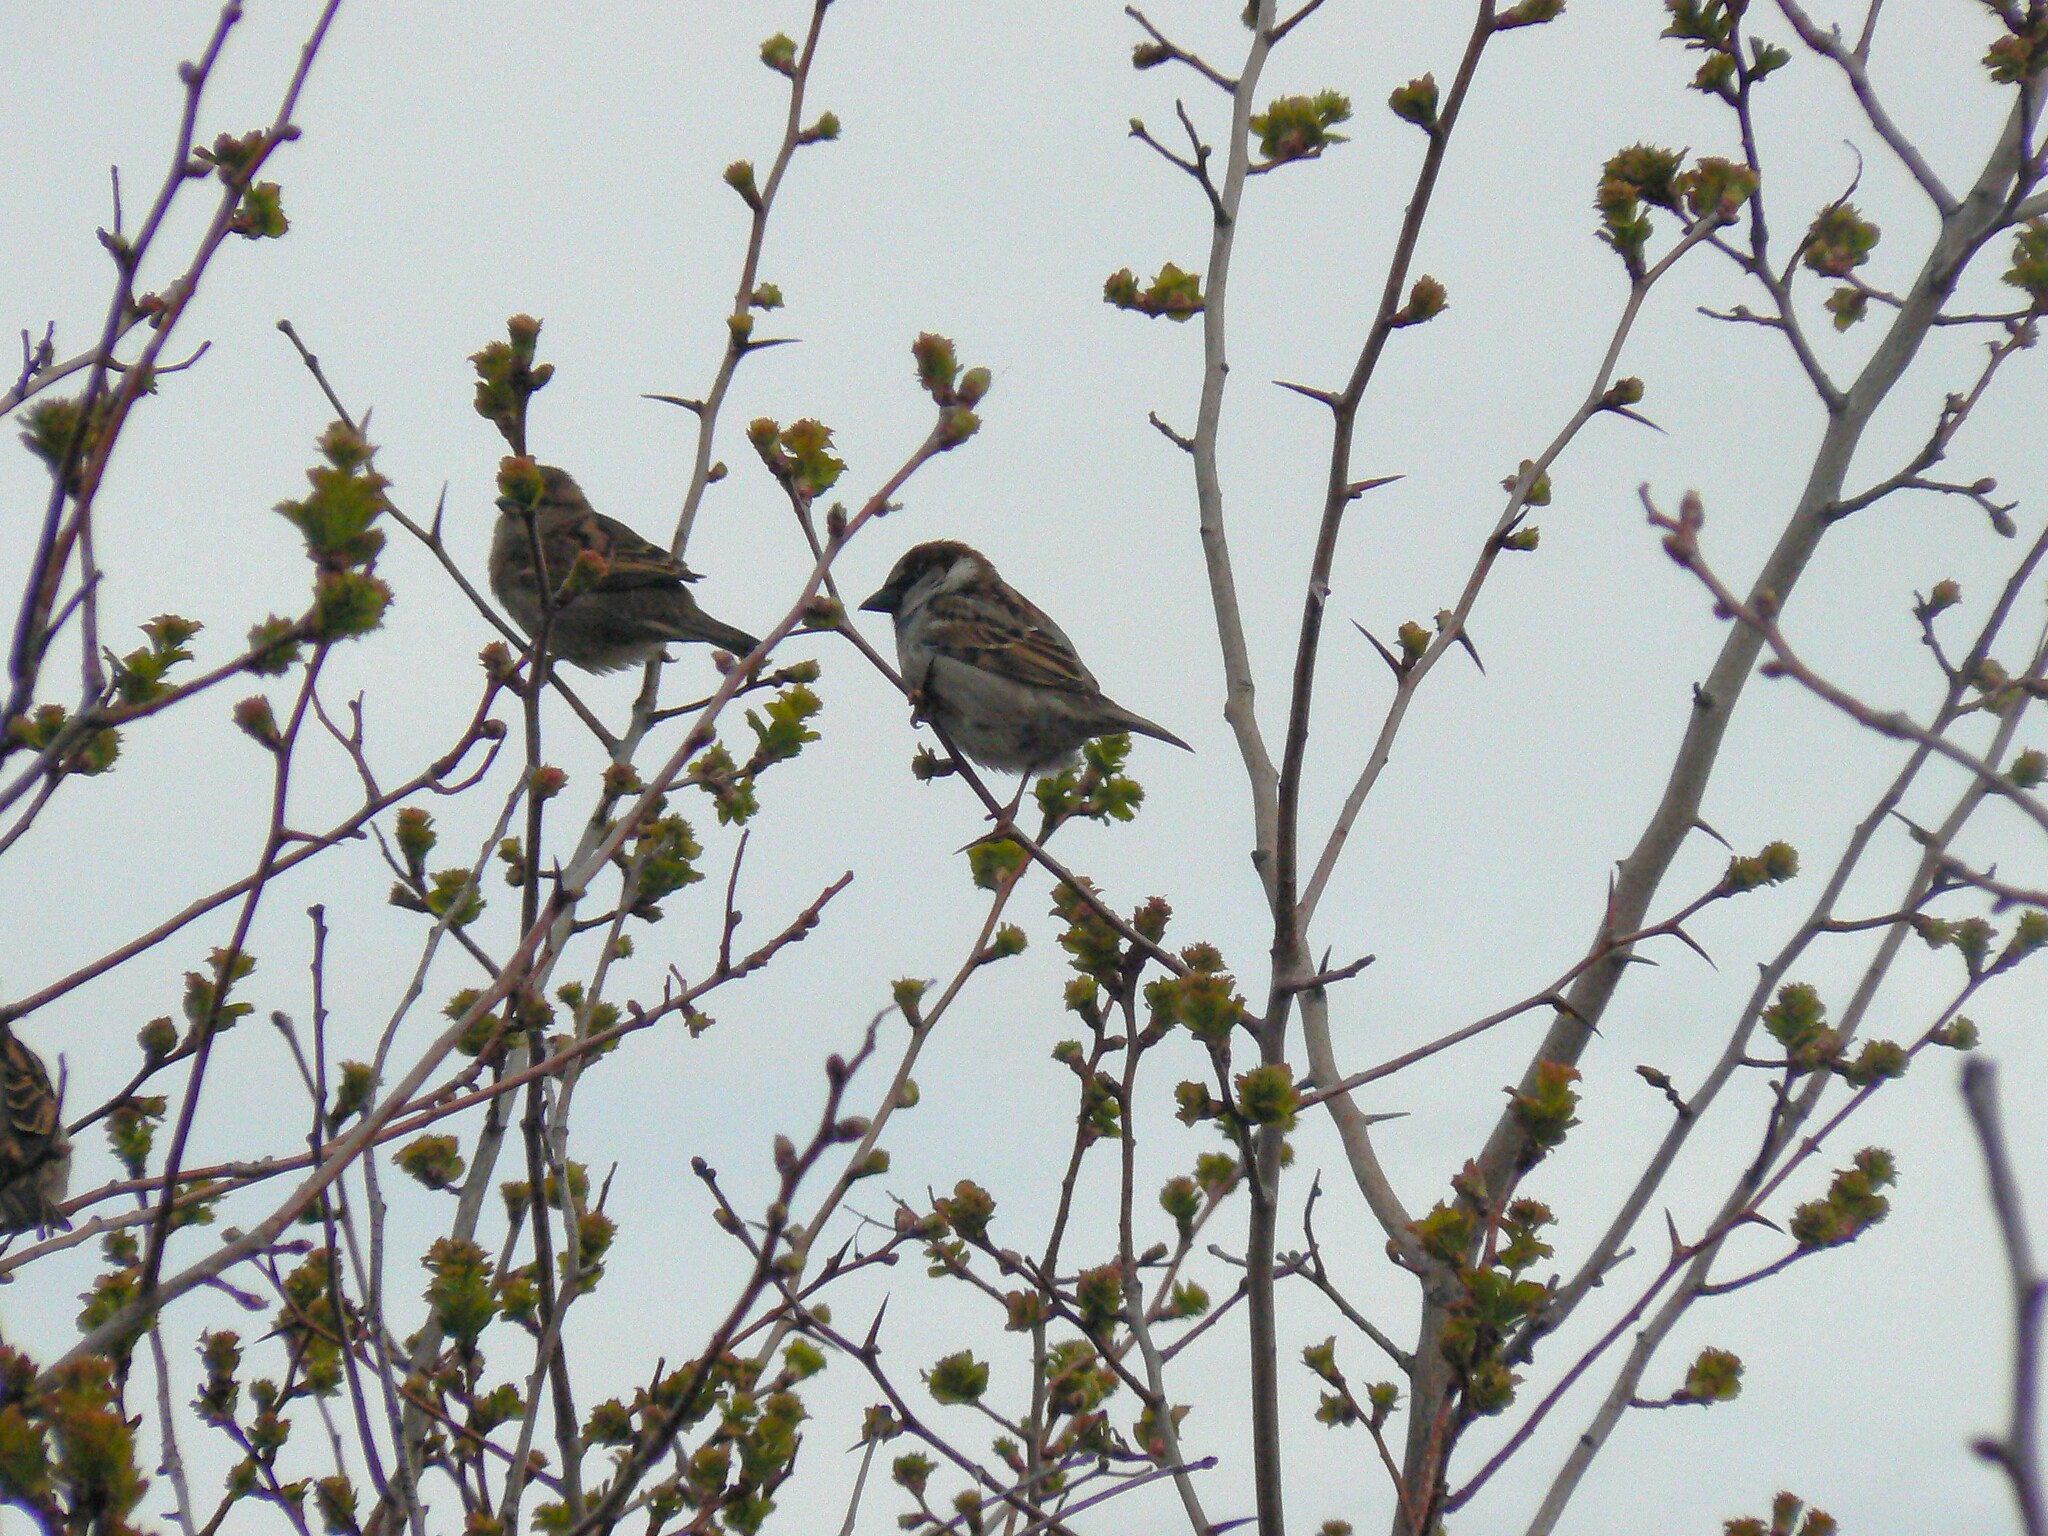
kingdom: Animalia
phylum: Chordata
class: Aves
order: Passeriformes
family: Passeridae
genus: Passer
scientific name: Passer domesticus
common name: House sparrow
